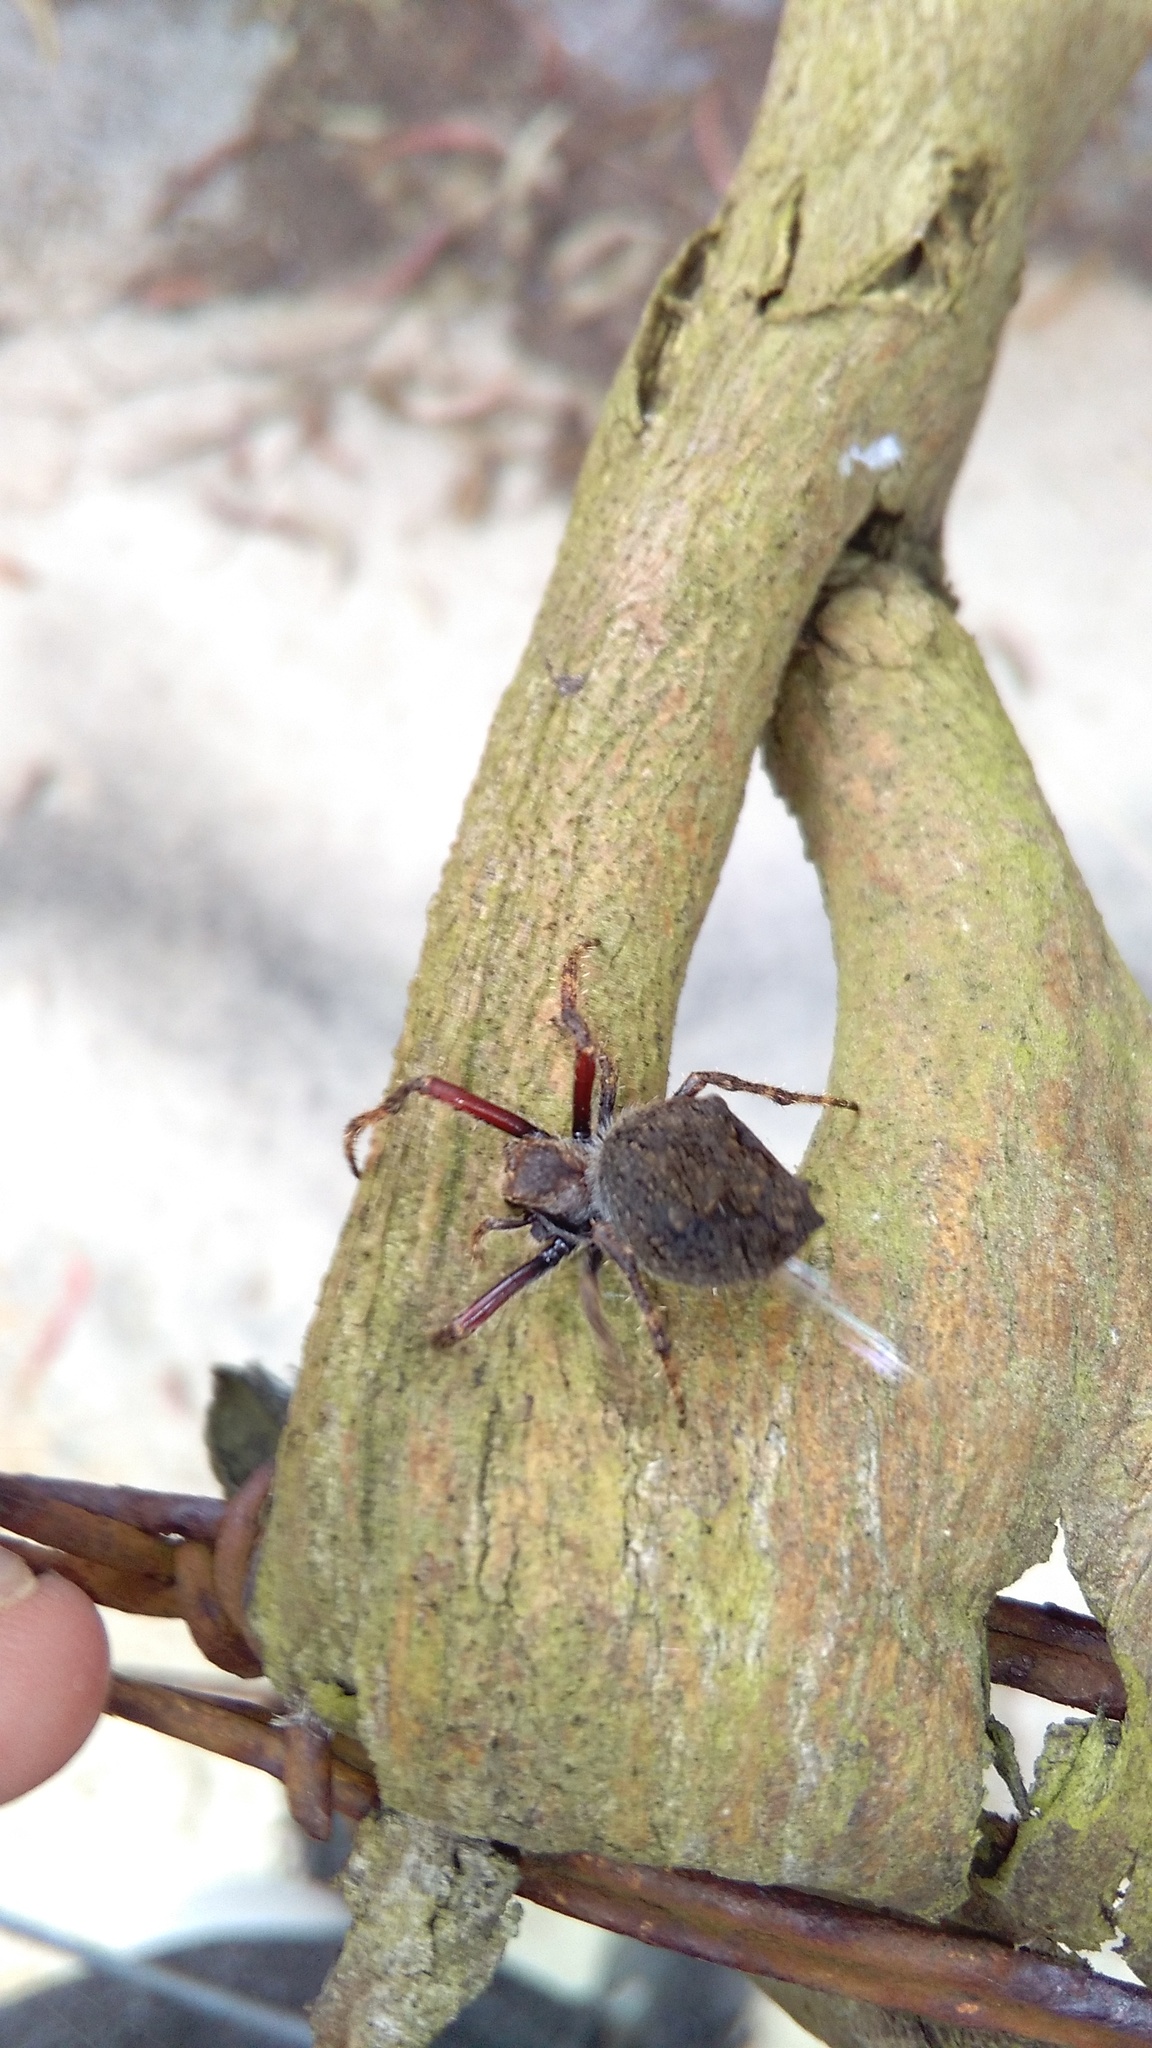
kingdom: Animalia
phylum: Arthropoda
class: Arachnida
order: Araneae
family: Araneidae
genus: Eriophora
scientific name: Eriophora pustulosa
